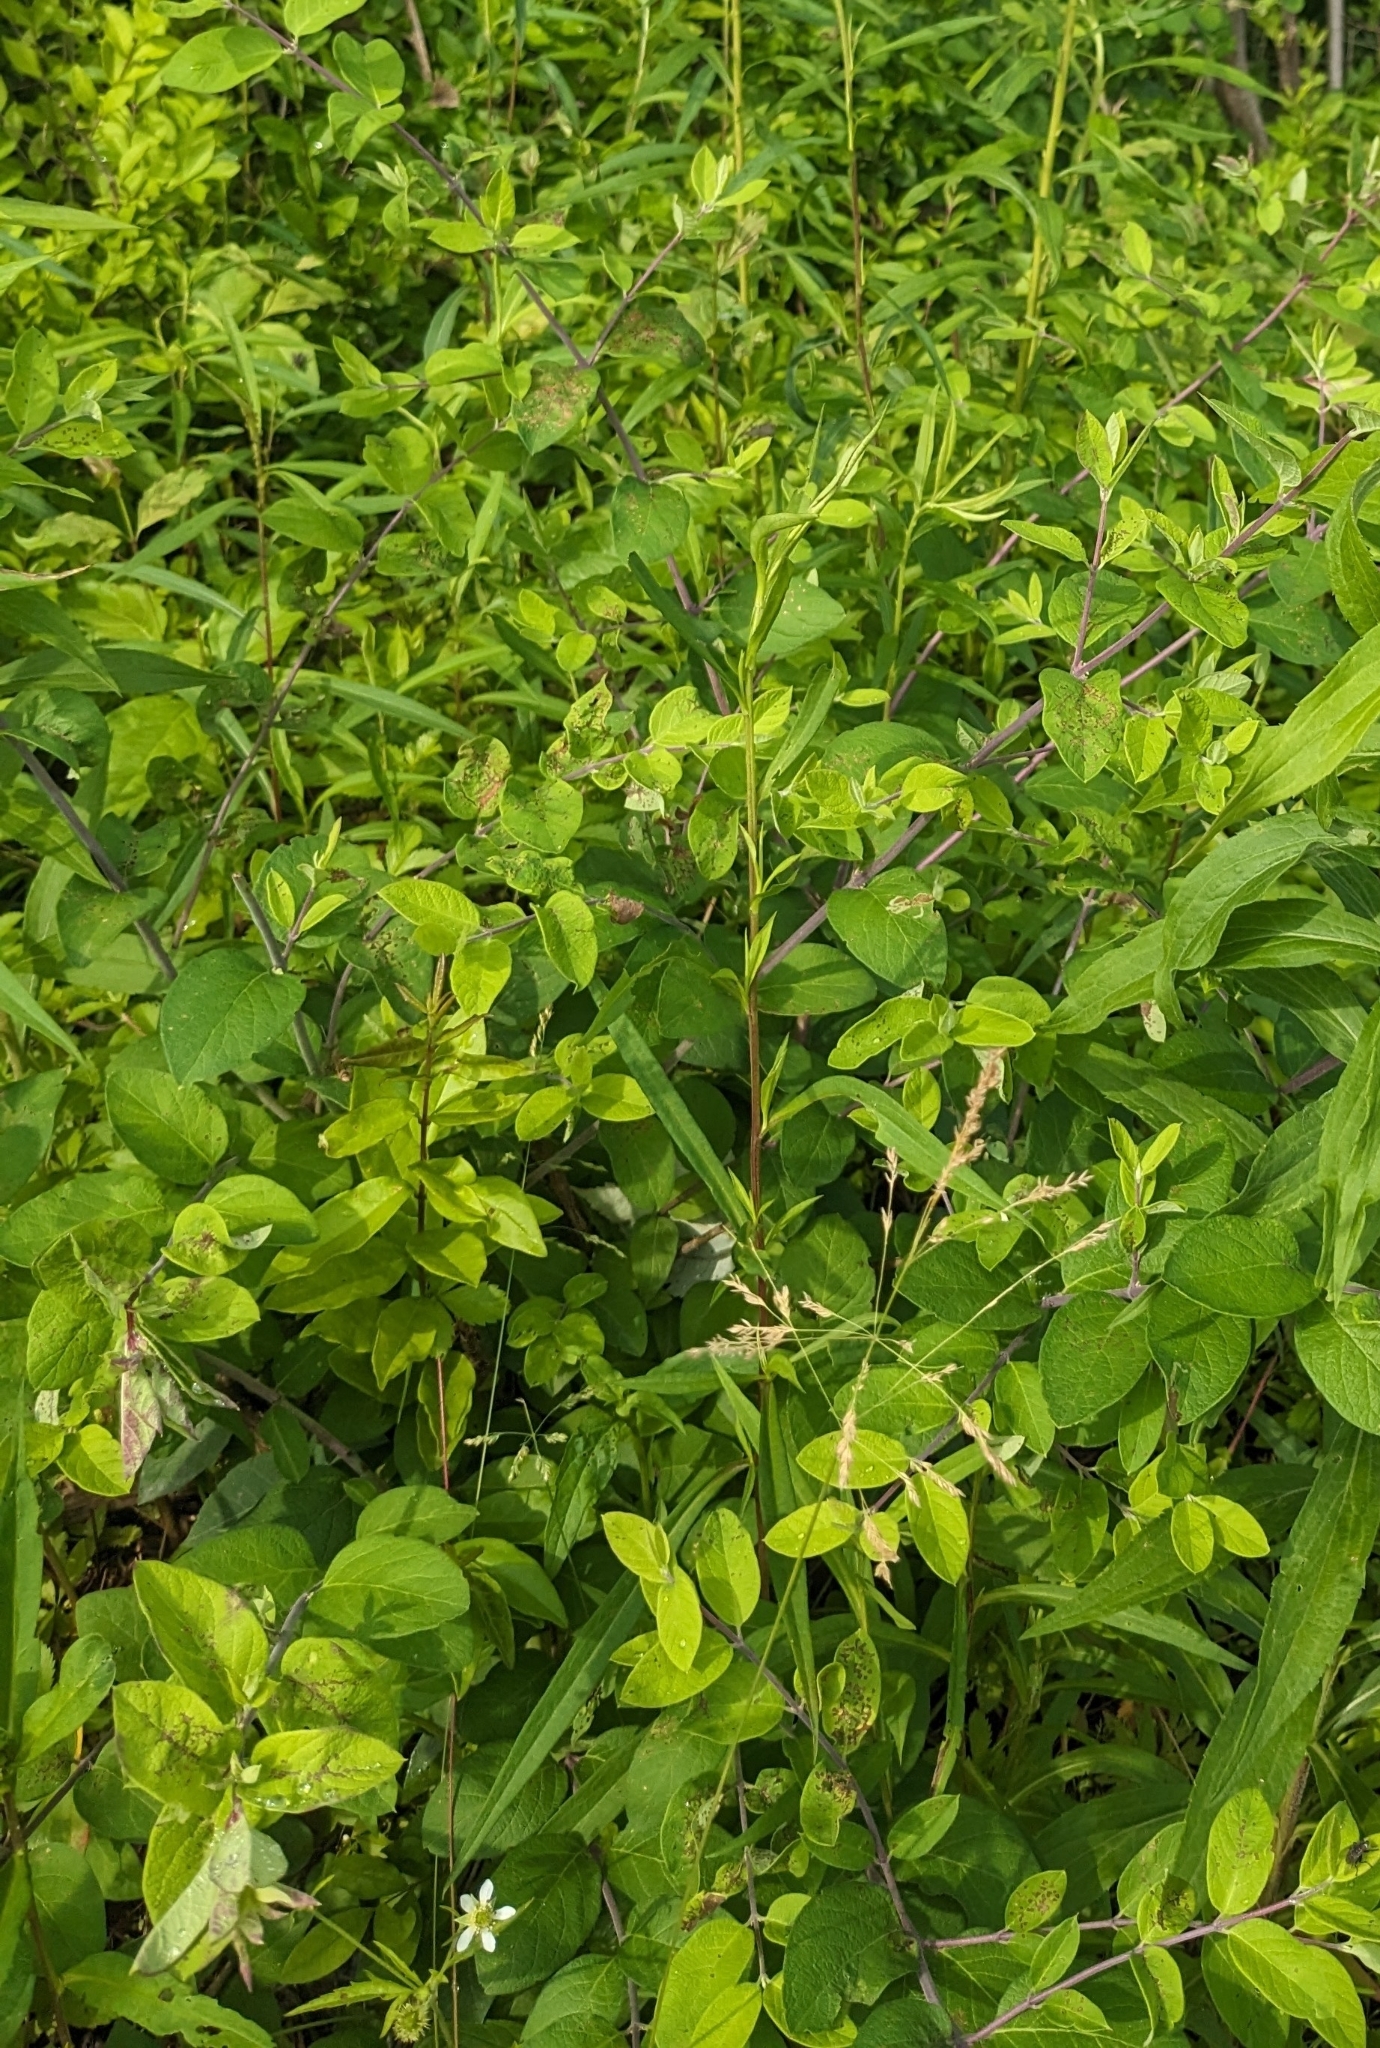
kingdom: Plantae
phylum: Tracheophyta
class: Magnoliopsida
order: Dipsacales
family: Caprifoliaceae
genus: Lonicera
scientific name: Lonicera
